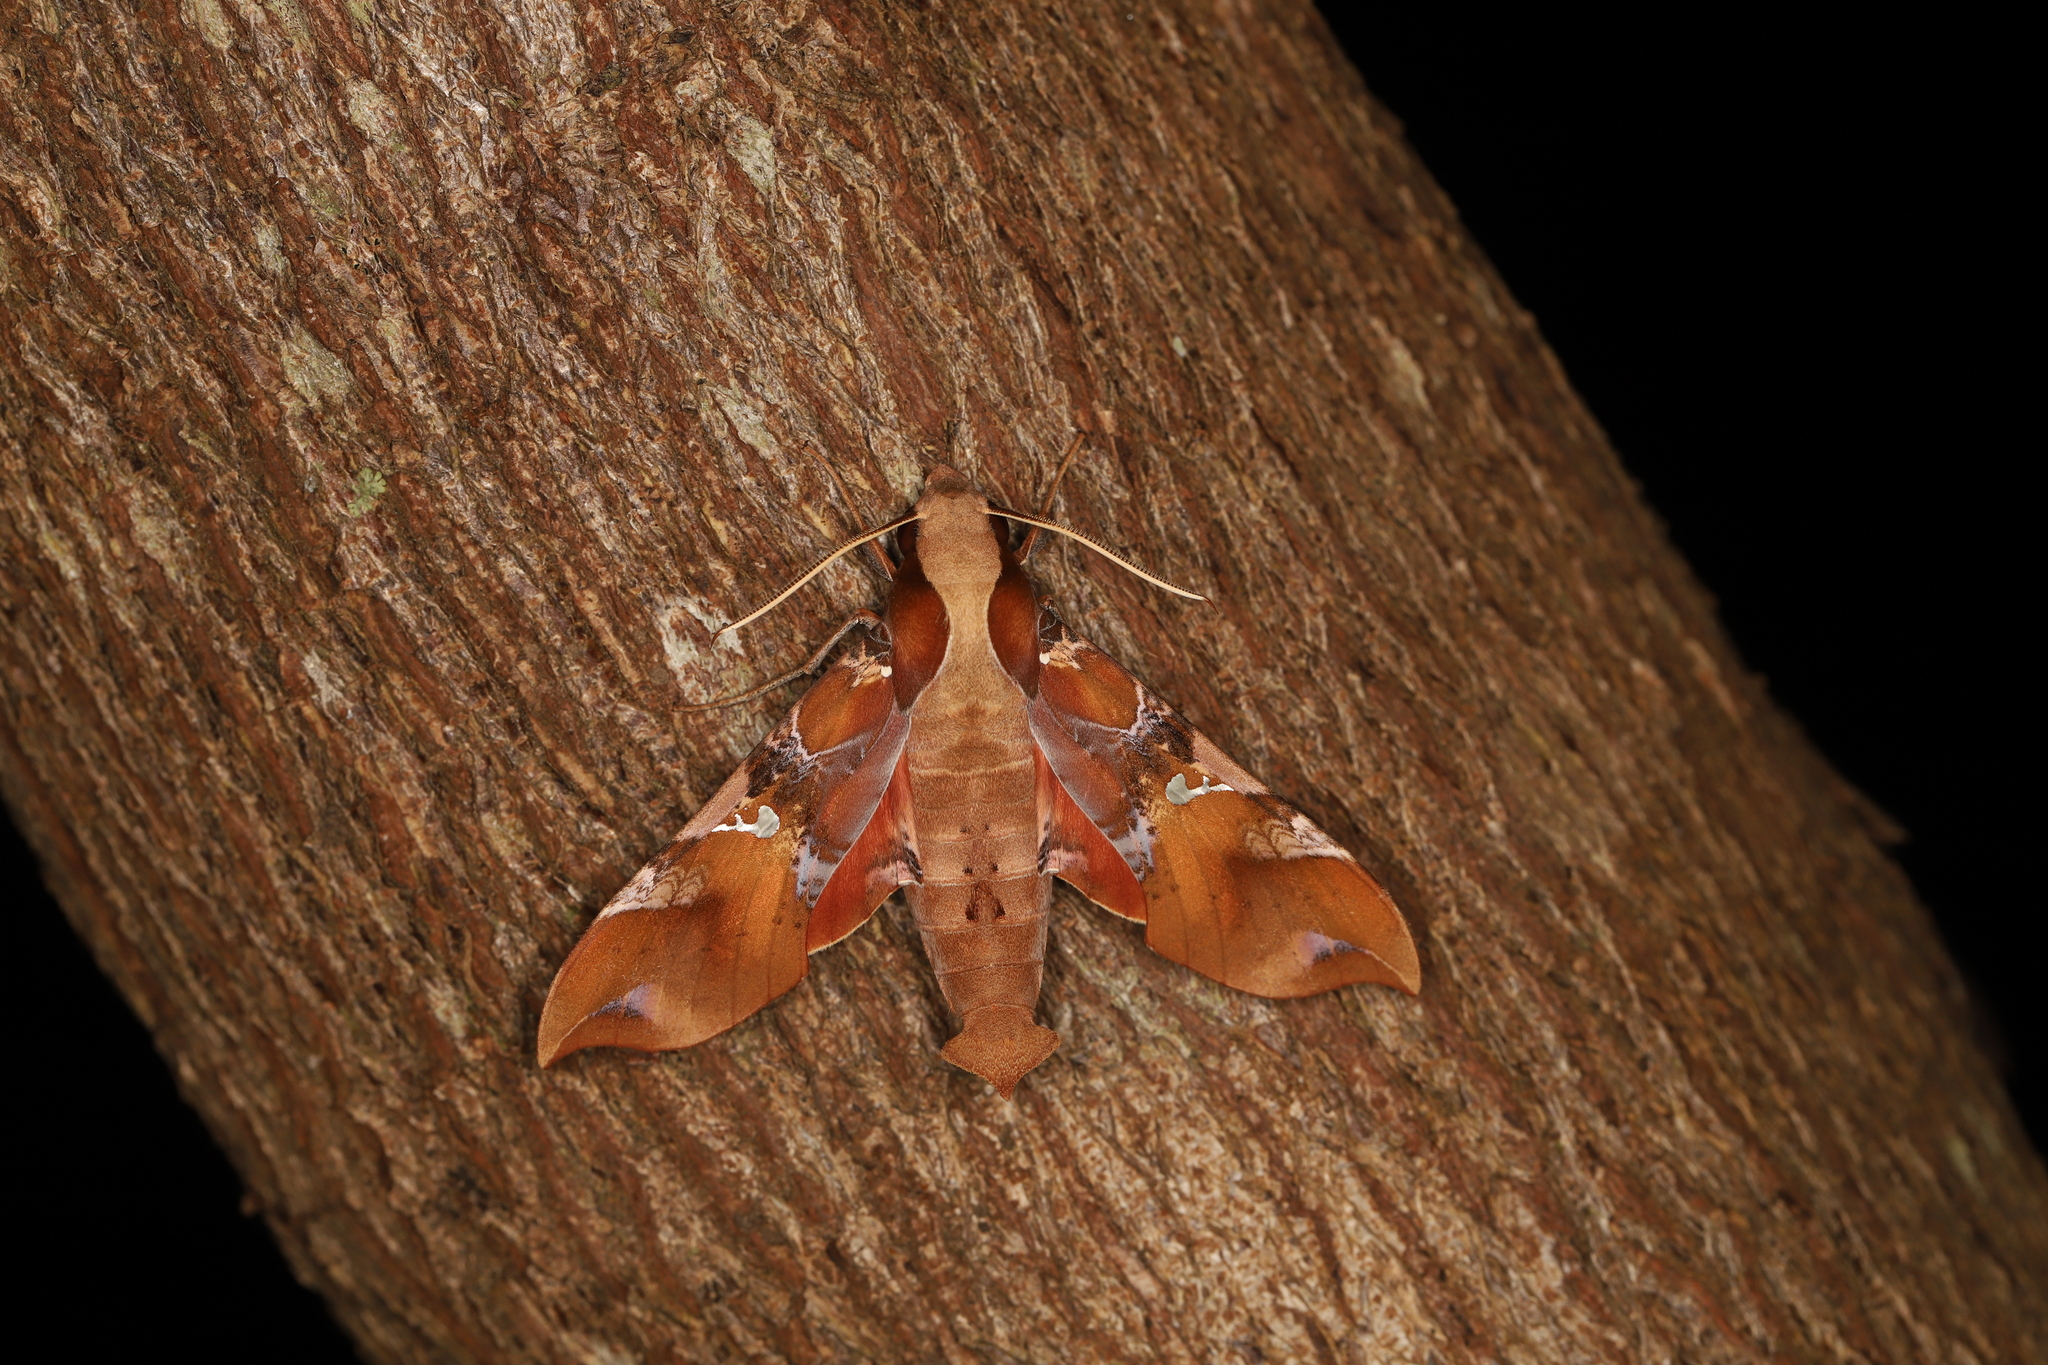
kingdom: Animalia
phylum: Arthropoda
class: Insecta
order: Lepidoptera
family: Sphingidae
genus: Callionima
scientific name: Callionima falcifera
